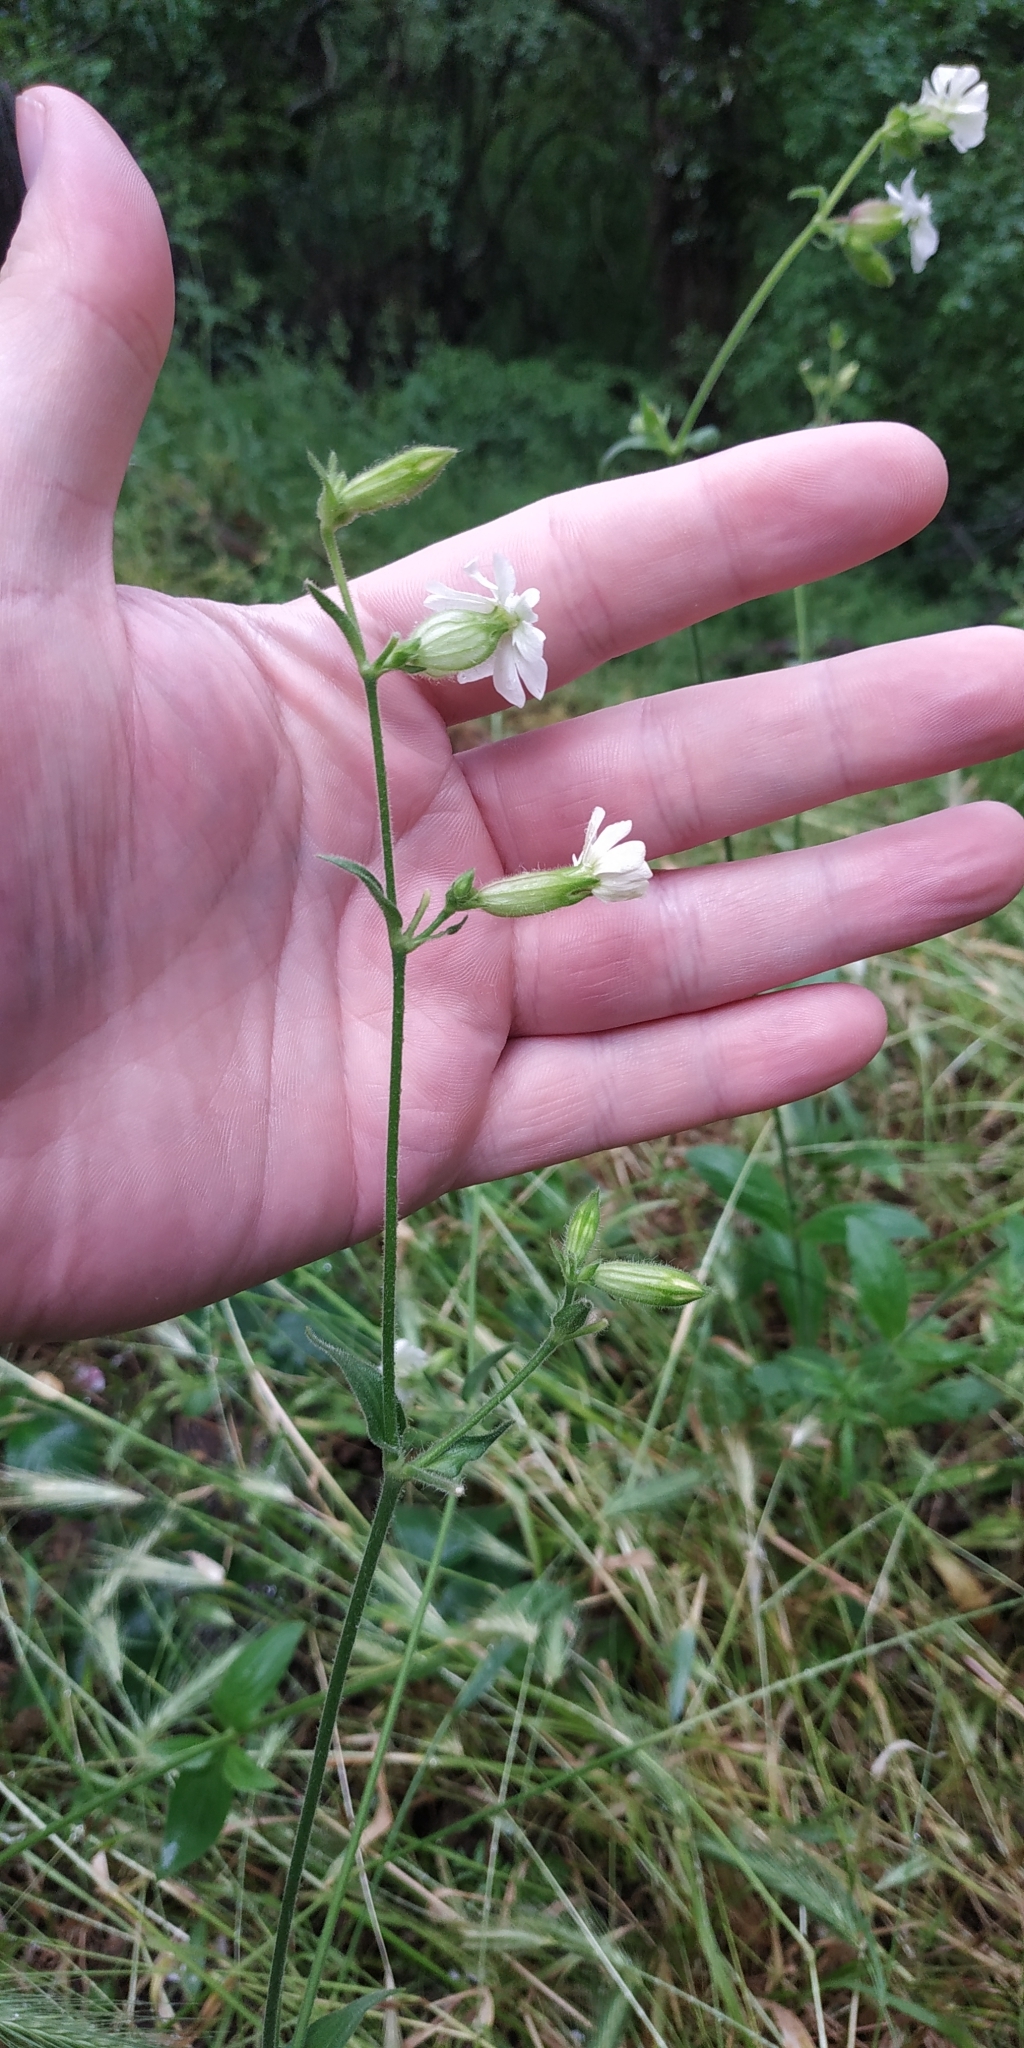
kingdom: Plantae
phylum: Tracheophyta
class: Magnoliopsida
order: Caryophyllales
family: Caryophyllaceae
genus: Silene
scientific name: Silene latifolia
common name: White campion
